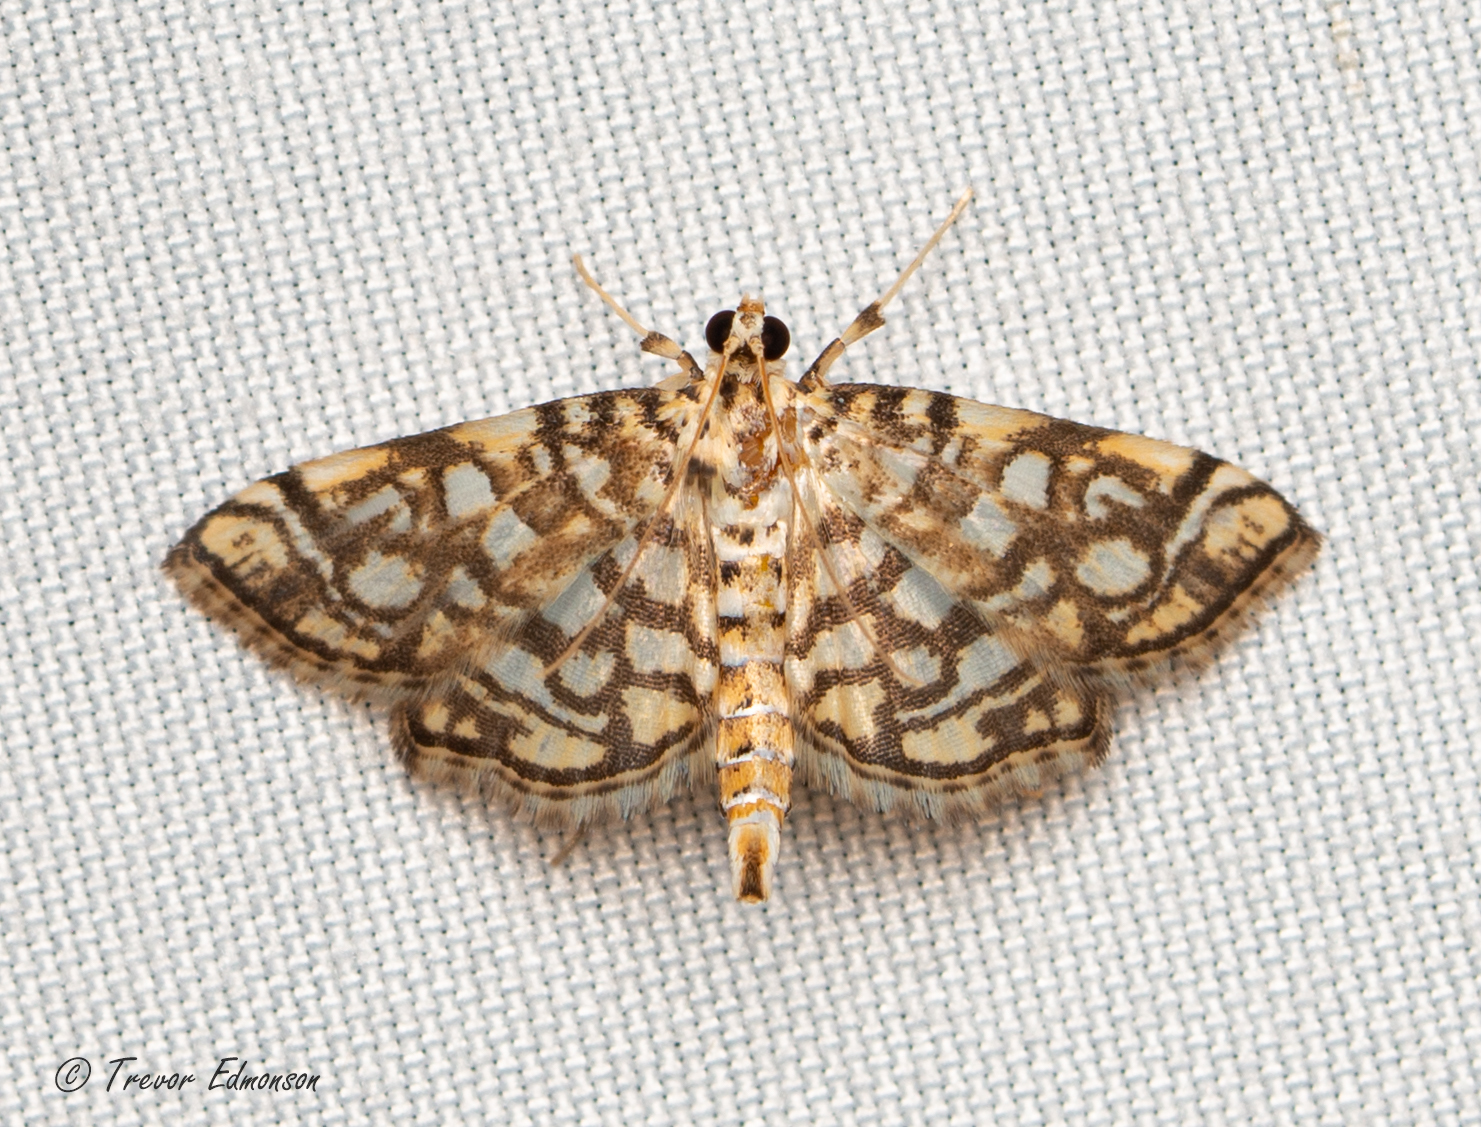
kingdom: Animalia
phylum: Arthropoda
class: Insecta
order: Lepidoptera
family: Crambidae
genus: Lygropia
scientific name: Lygropia rivulalis
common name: Bog lygropia moth
